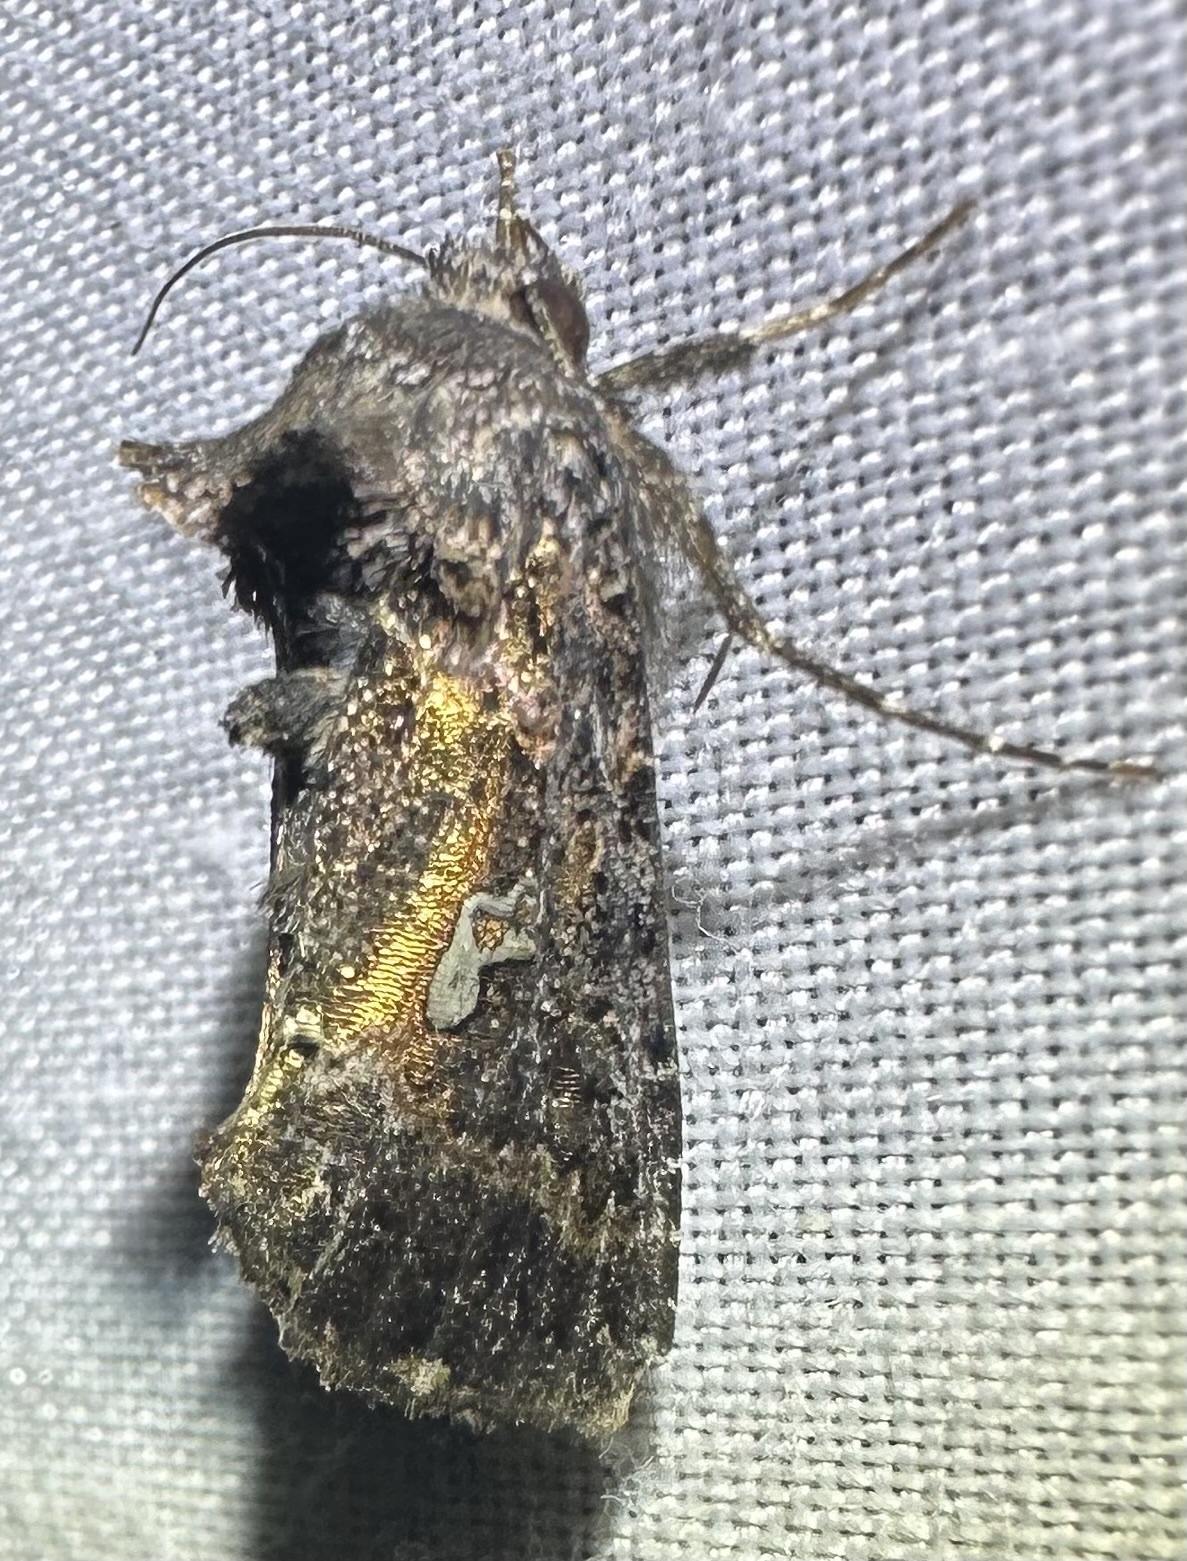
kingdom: Animalia
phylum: Arthropoda
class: Insecta
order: Lepidoptera
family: Noctuidae
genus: Ctenoplusia
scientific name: Ctenoplusia limbirena
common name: Scar bank gem
